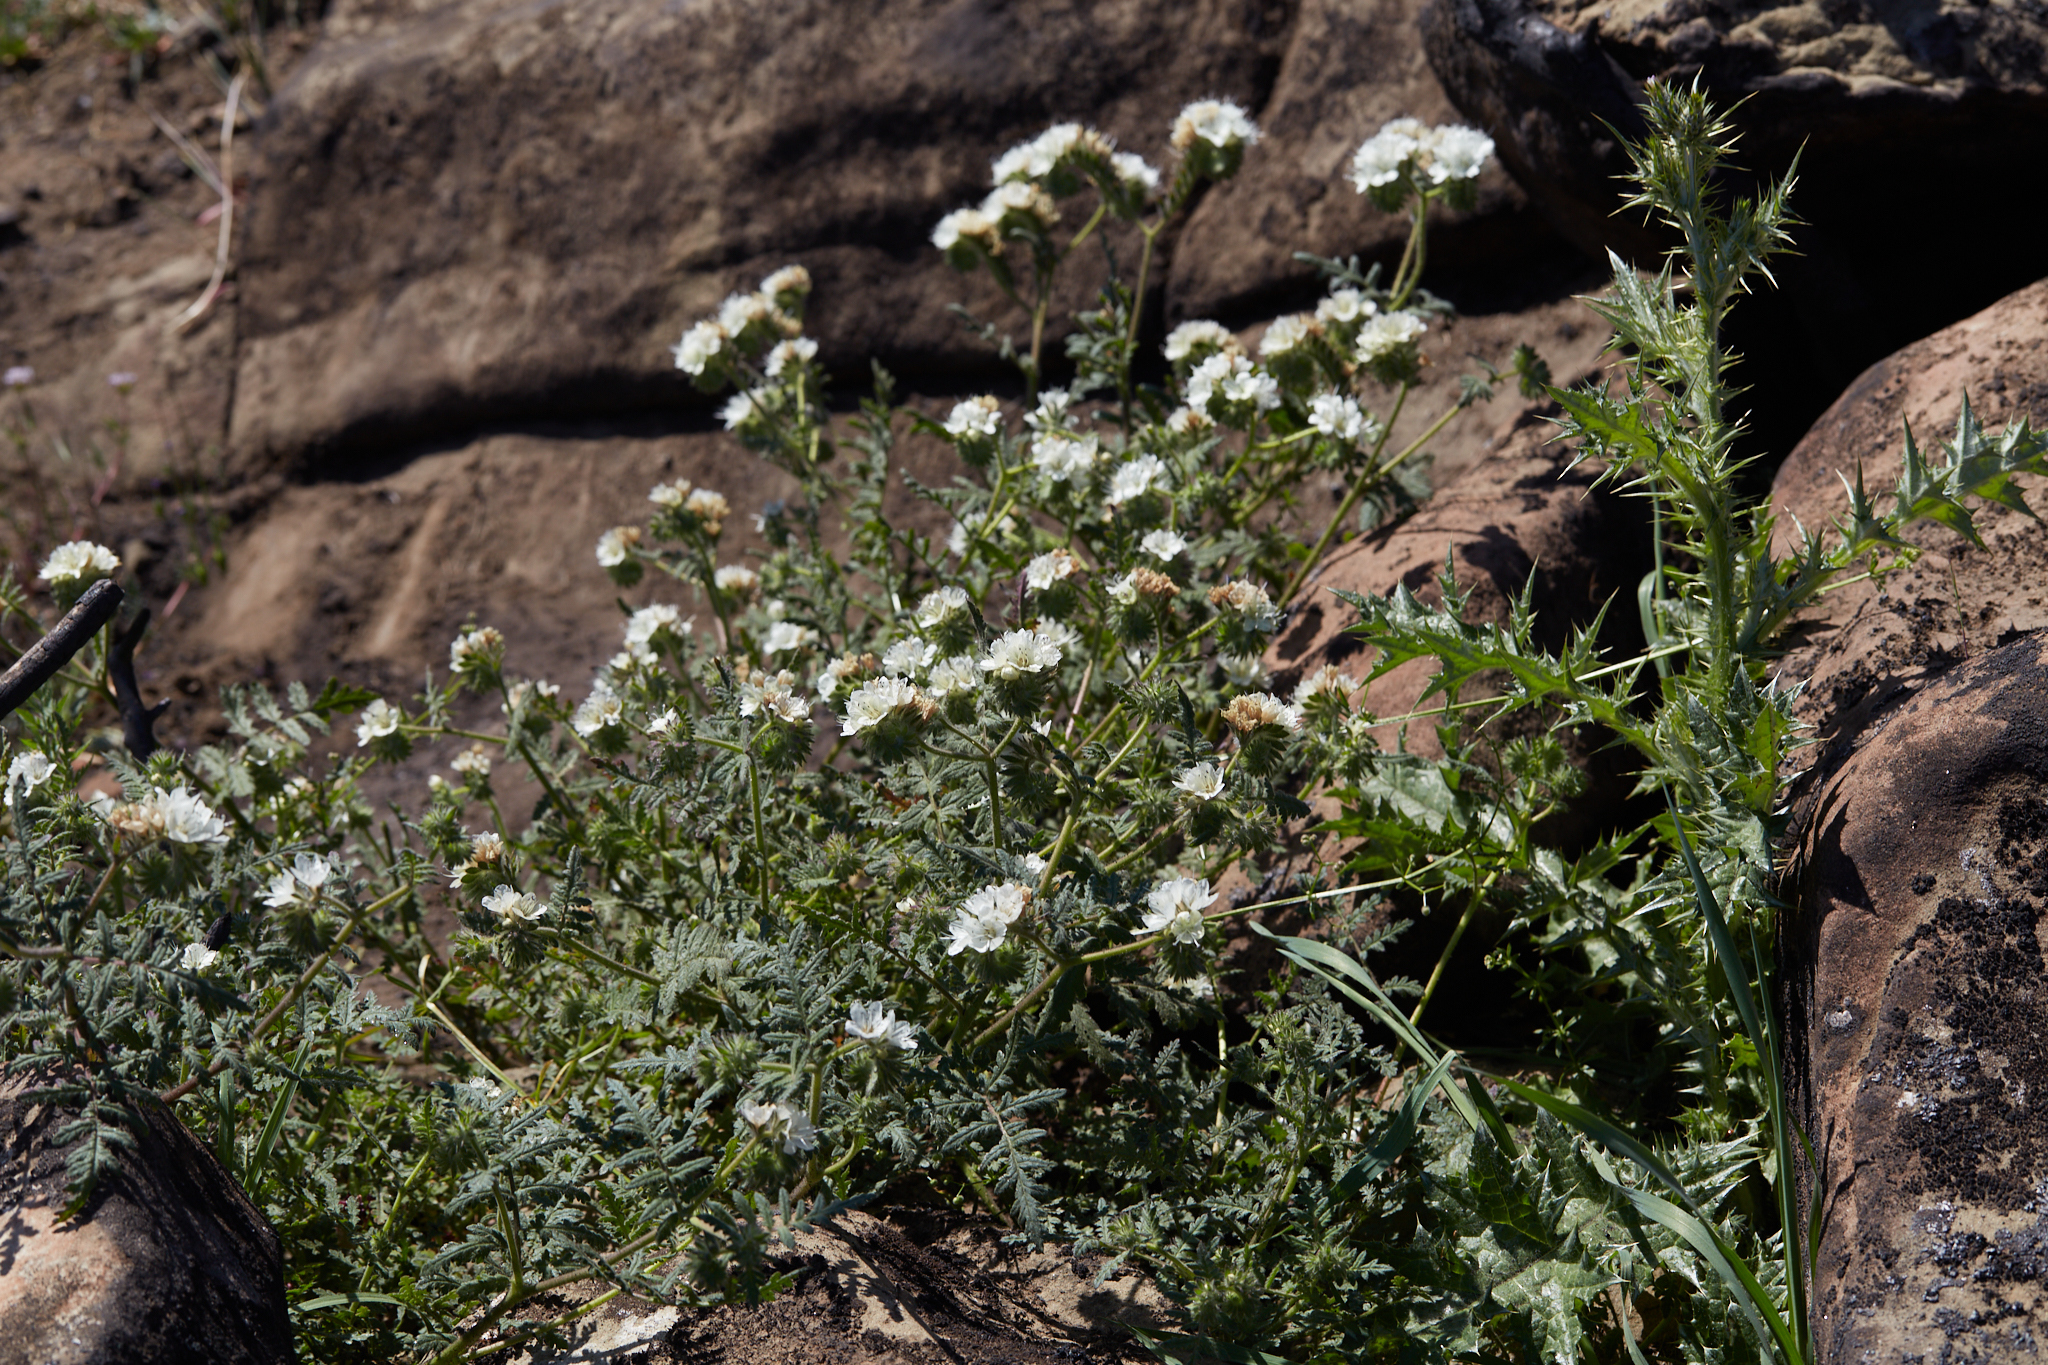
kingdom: Plantae
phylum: Tracheophyta
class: Magnoliopsida
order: Boraginales
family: Hydrophyllaceae
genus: Phacelia
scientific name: Phacelia distans
